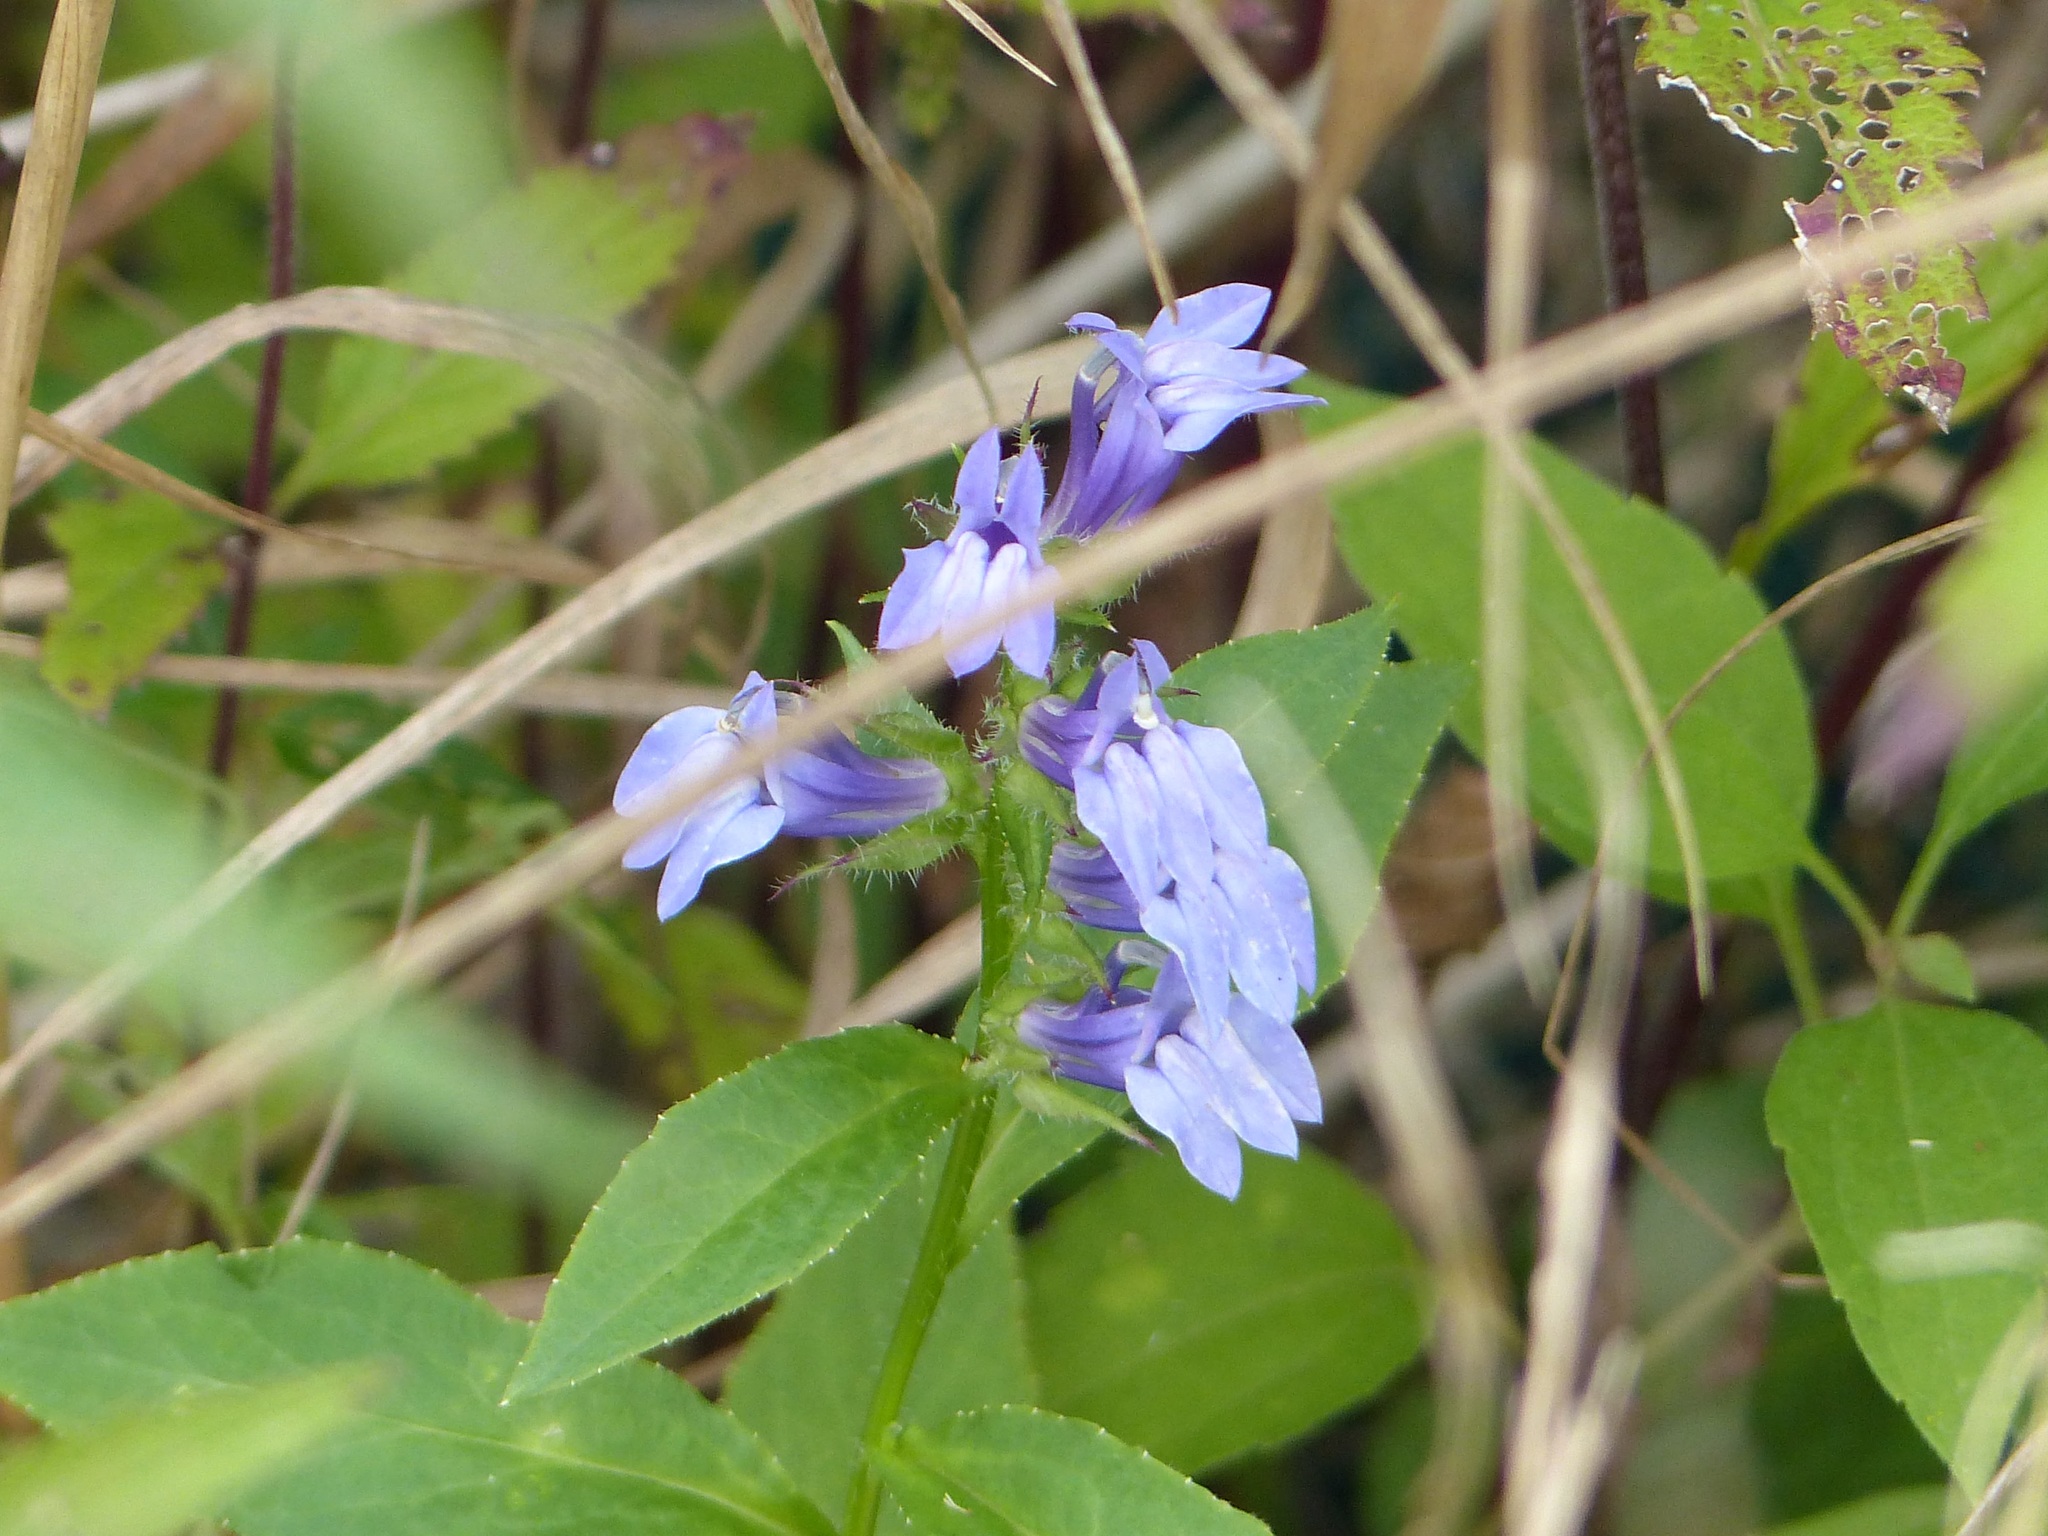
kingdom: Plantae
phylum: Tracheophyta
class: Magnoliopsida
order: Asterales
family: Campanulaceae
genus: Lobelia
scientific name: Lobelia siphilitica
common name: Great lobelia
